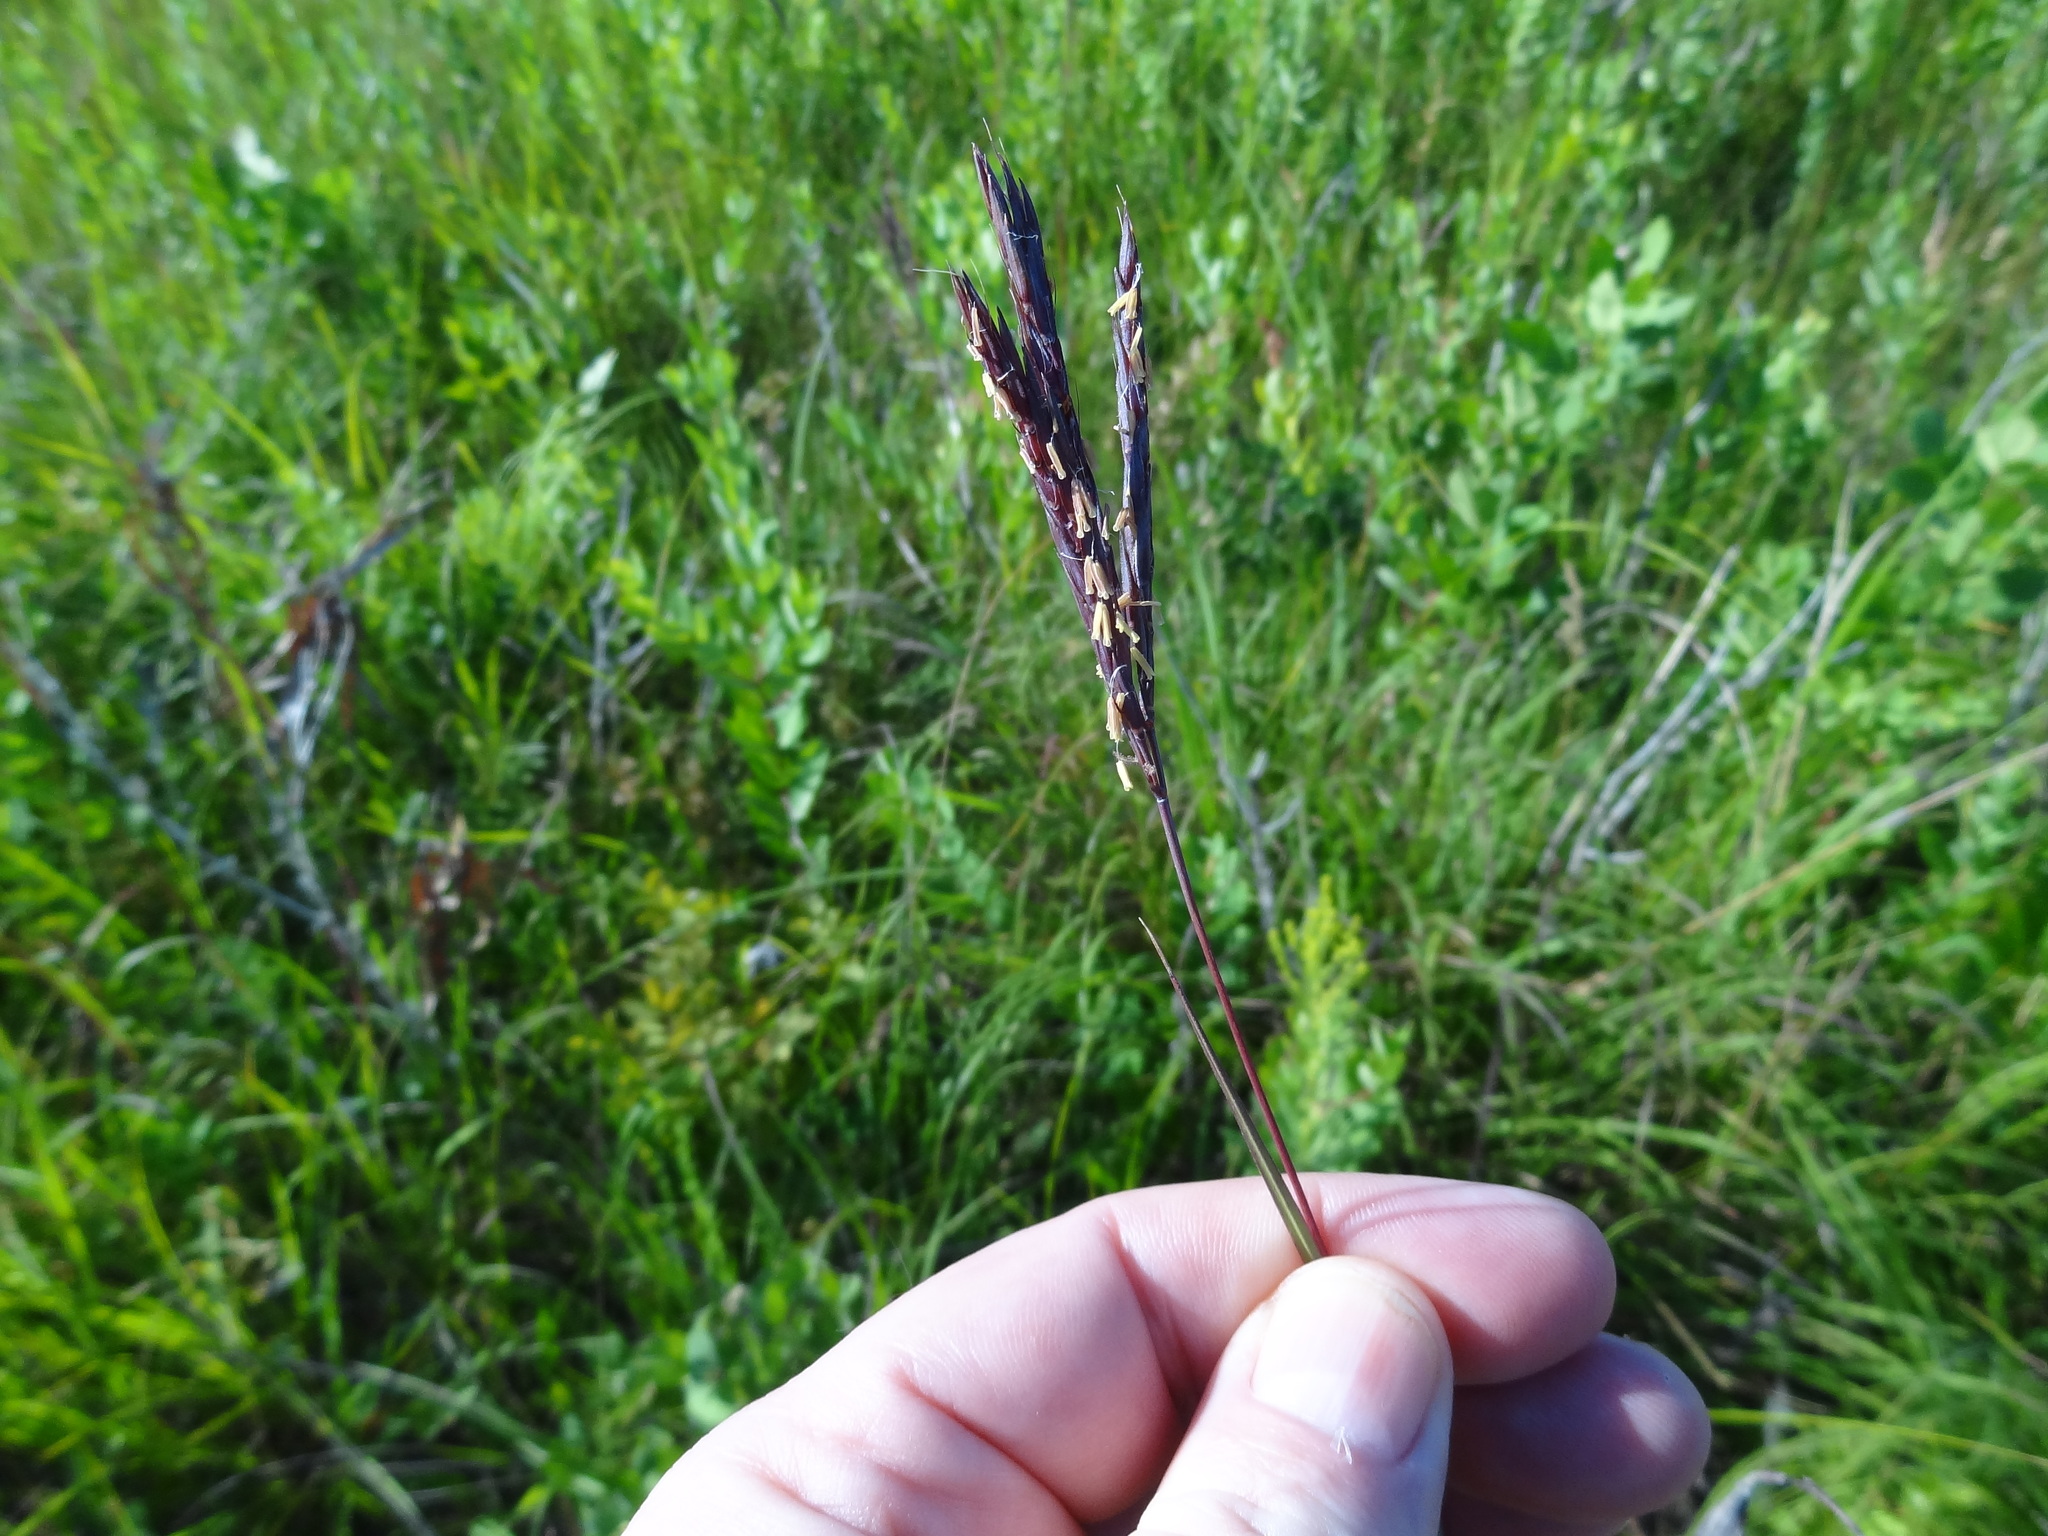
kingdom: Plantae
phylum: Tracheophyta
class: Liliopsida
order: Poales
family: Poaceae
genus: Andropogon
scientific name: Andropogon gerardi
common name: Big bluestem
